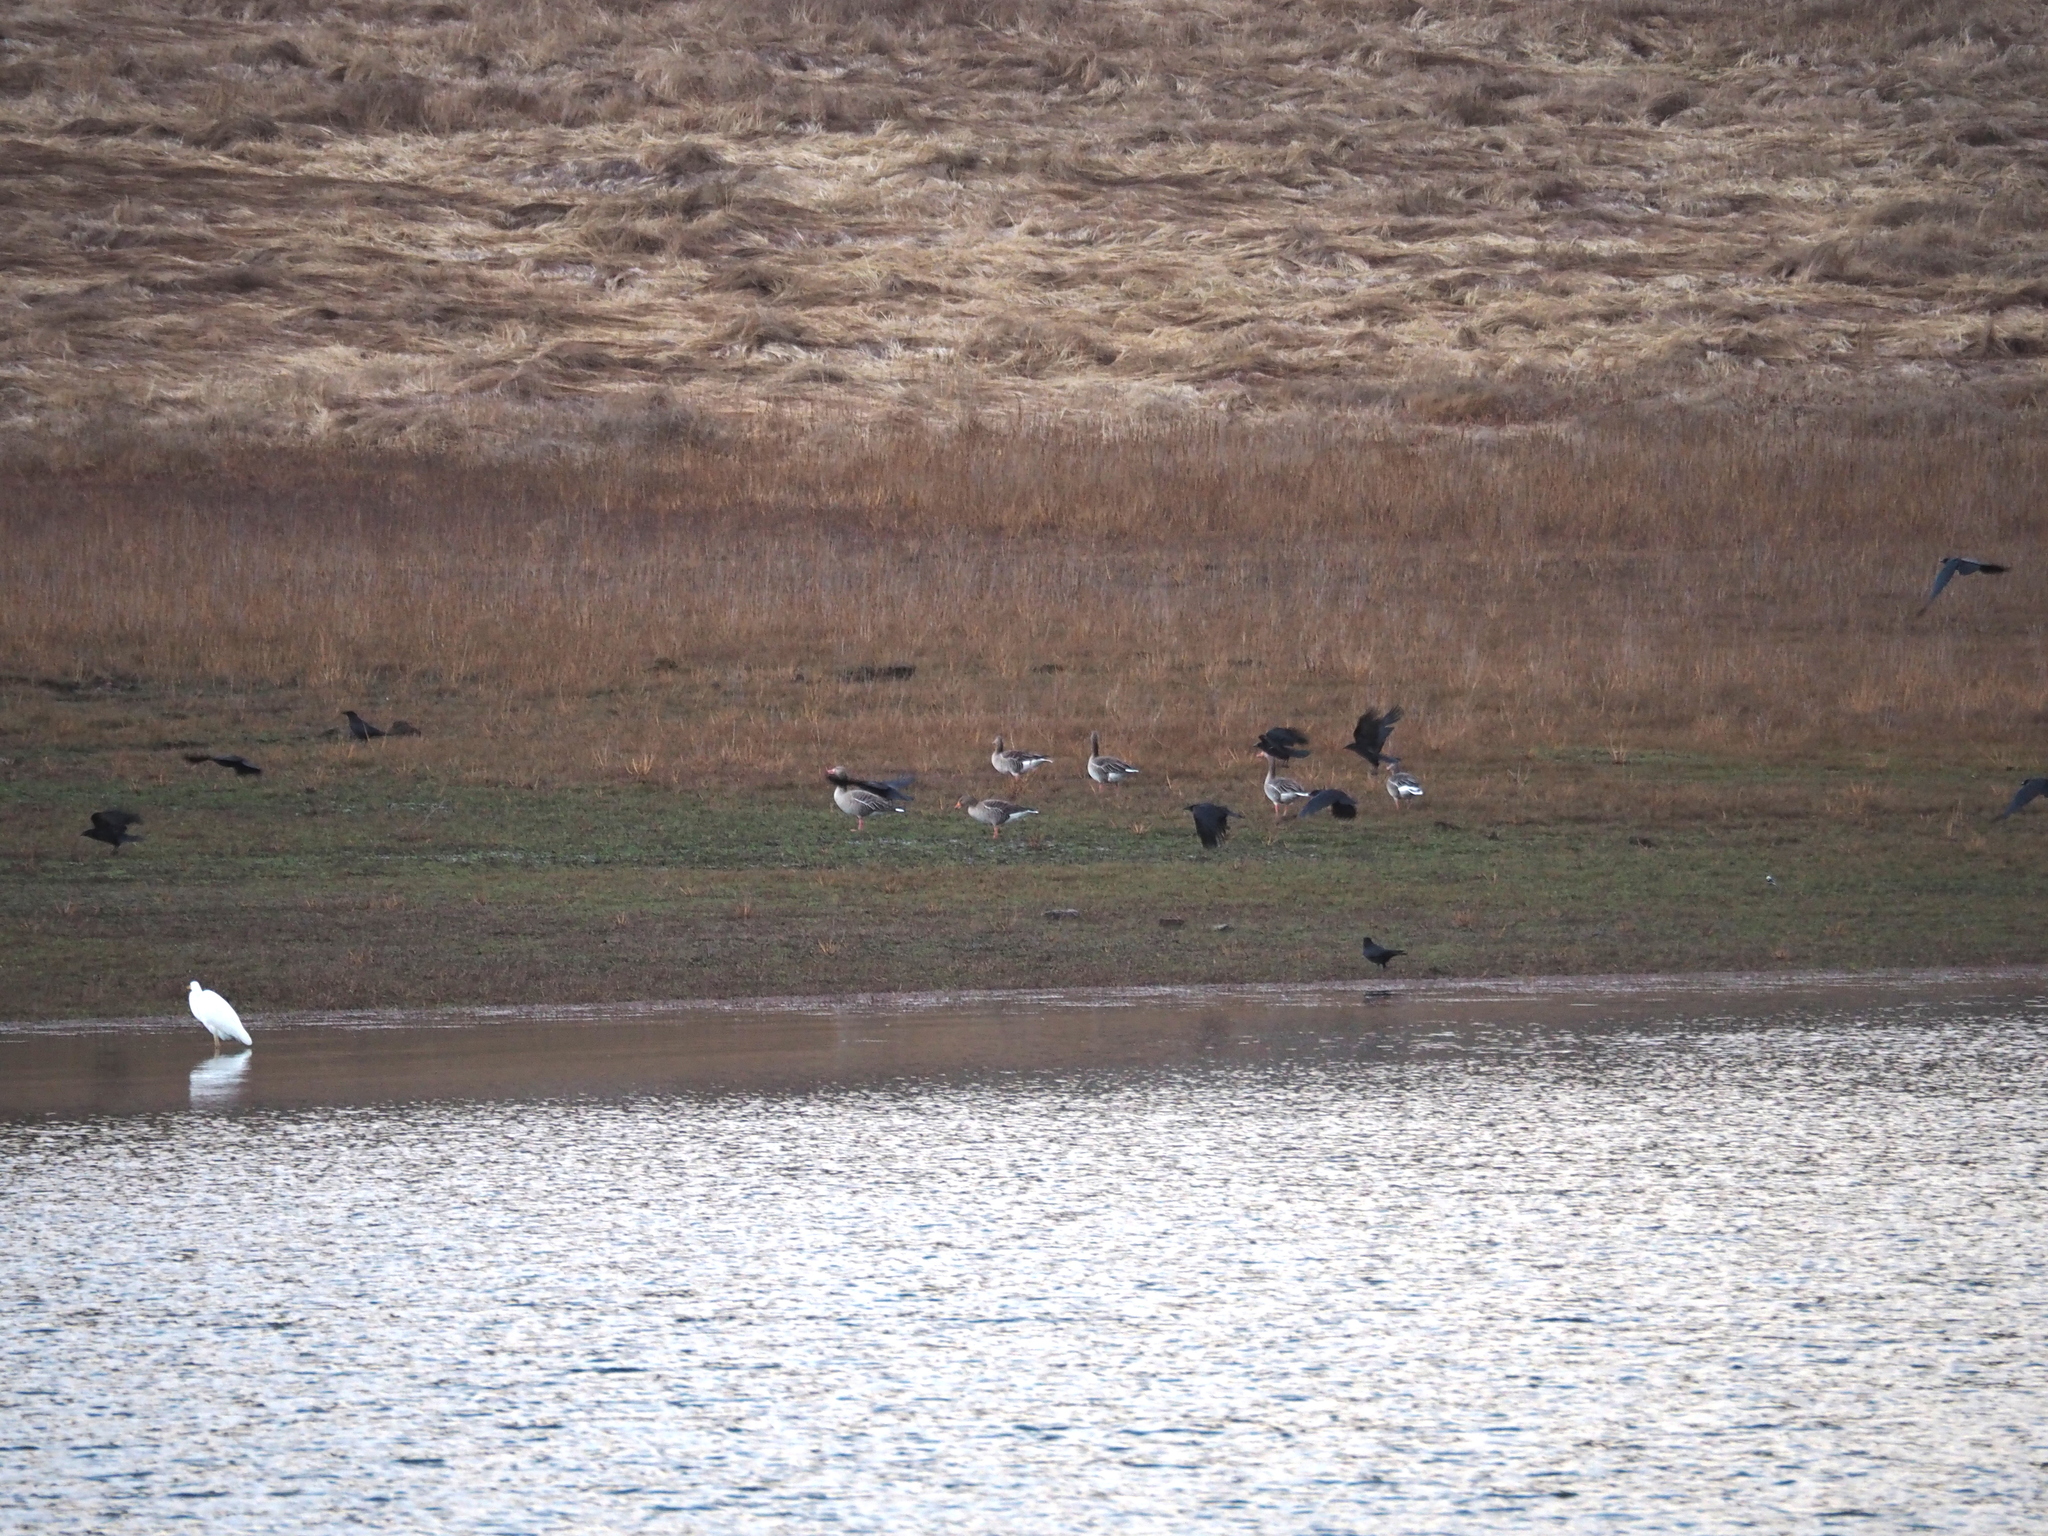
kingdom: Animalia
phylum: Chordata
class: Aves
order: Anseriformes
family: Anatidae
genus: Anser
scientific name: Anser anser
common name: Greylag goose
